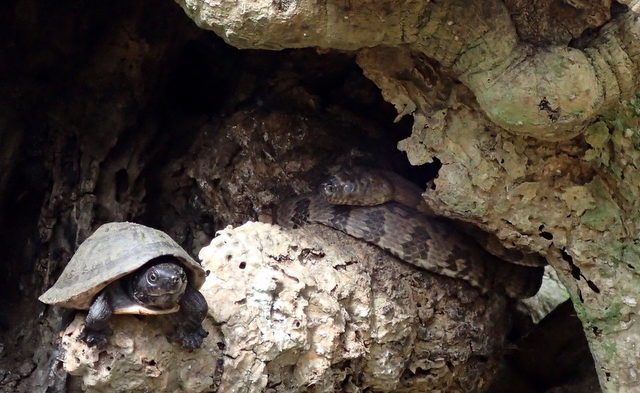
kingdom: Animalia
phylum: Chordata
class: Squamata
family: Colubridae
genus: Nerodia
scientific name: Nerodia taxispilota
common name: Brown water snake
